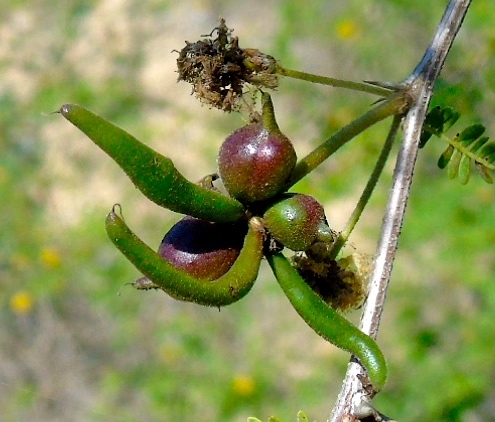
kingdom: Plantae
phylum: Tracheophyta
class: Magnoliopsida
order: Fabales
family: Fabaceae
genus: Vachellia
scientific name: Vachellia farnesiana
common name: Sweet acacia
